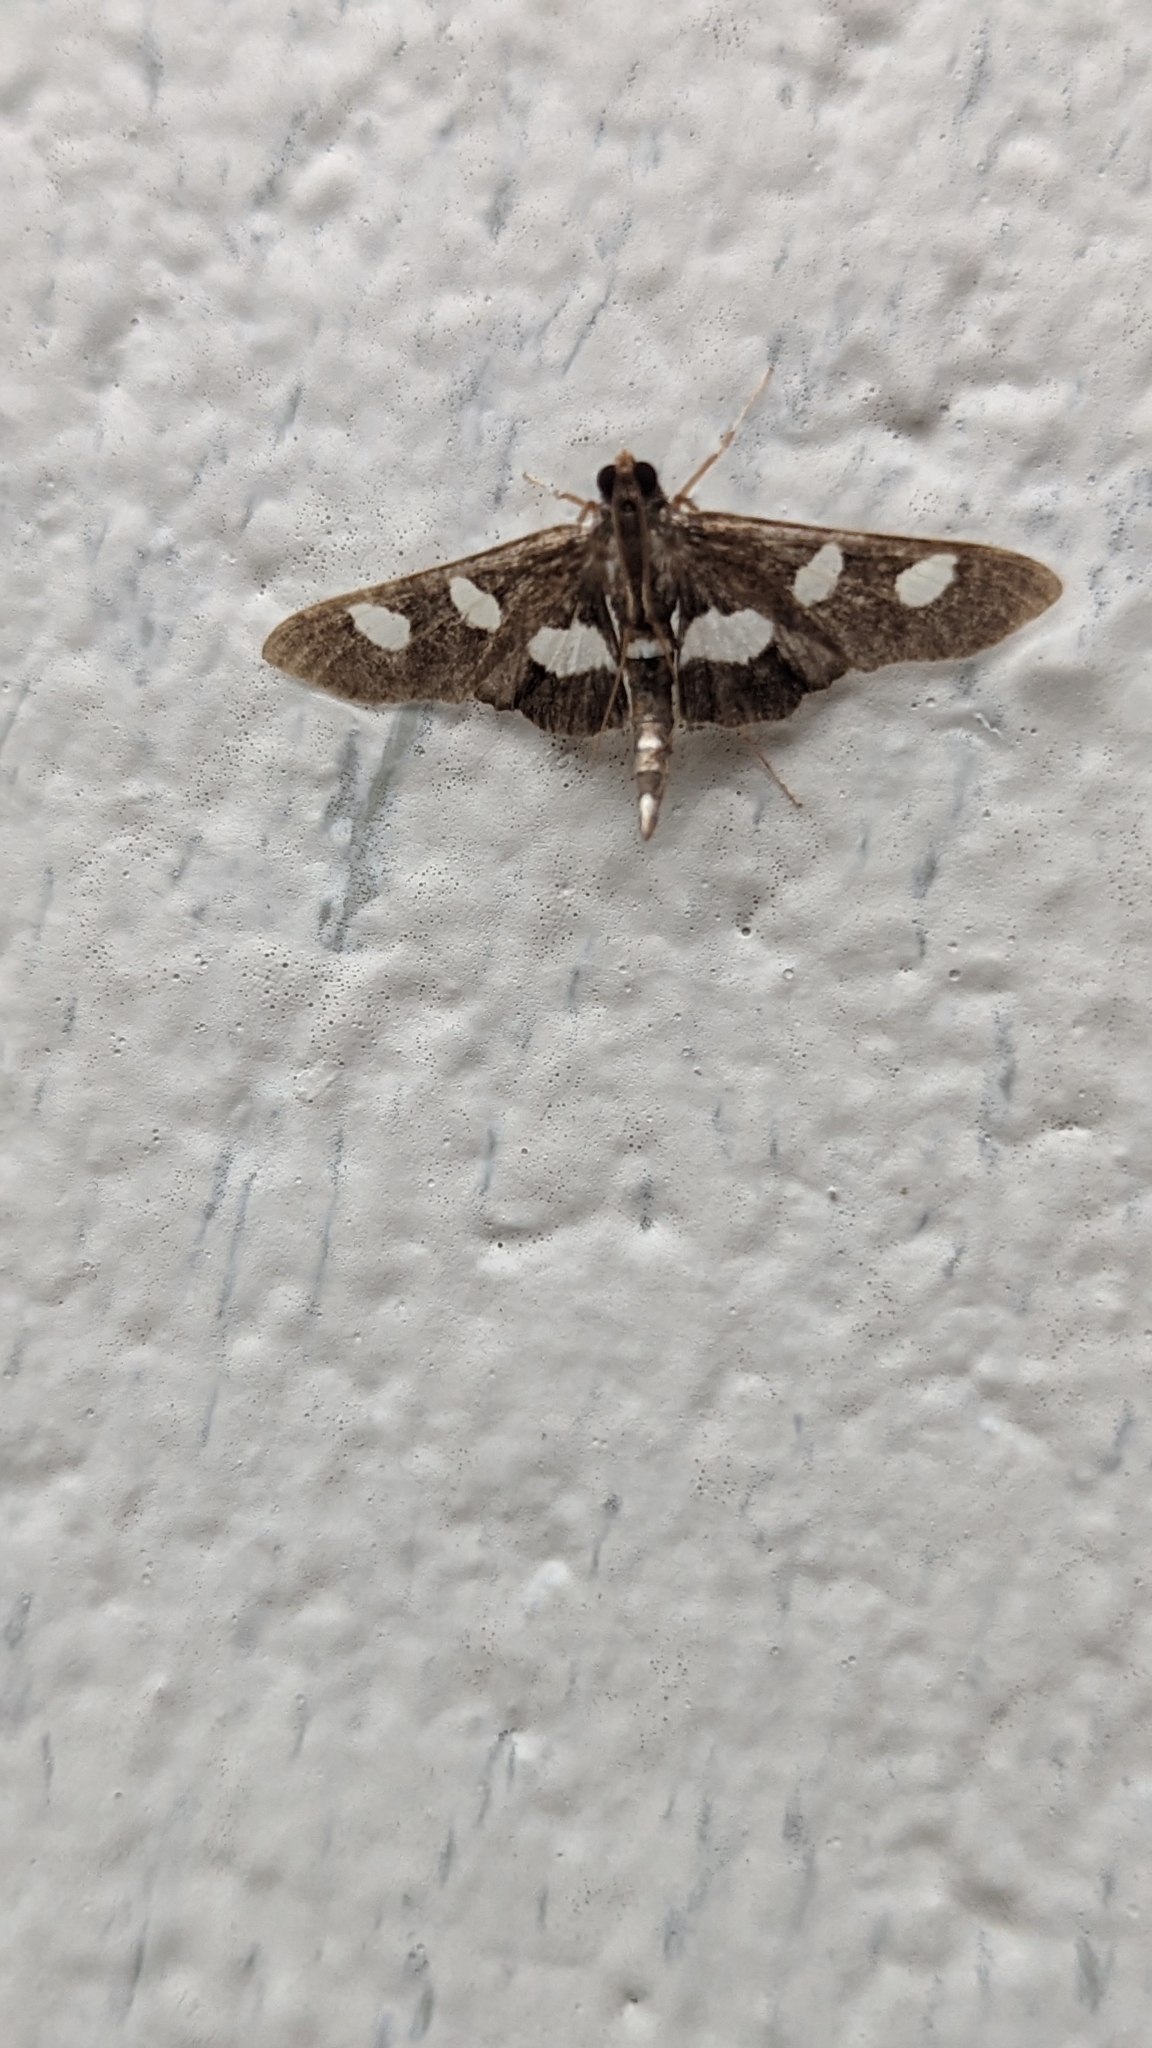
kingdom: Animalia
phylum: Arthropoda
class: Insecta
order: Lepidoptera
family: Crambidae
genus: Desmia
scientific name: Desmia
